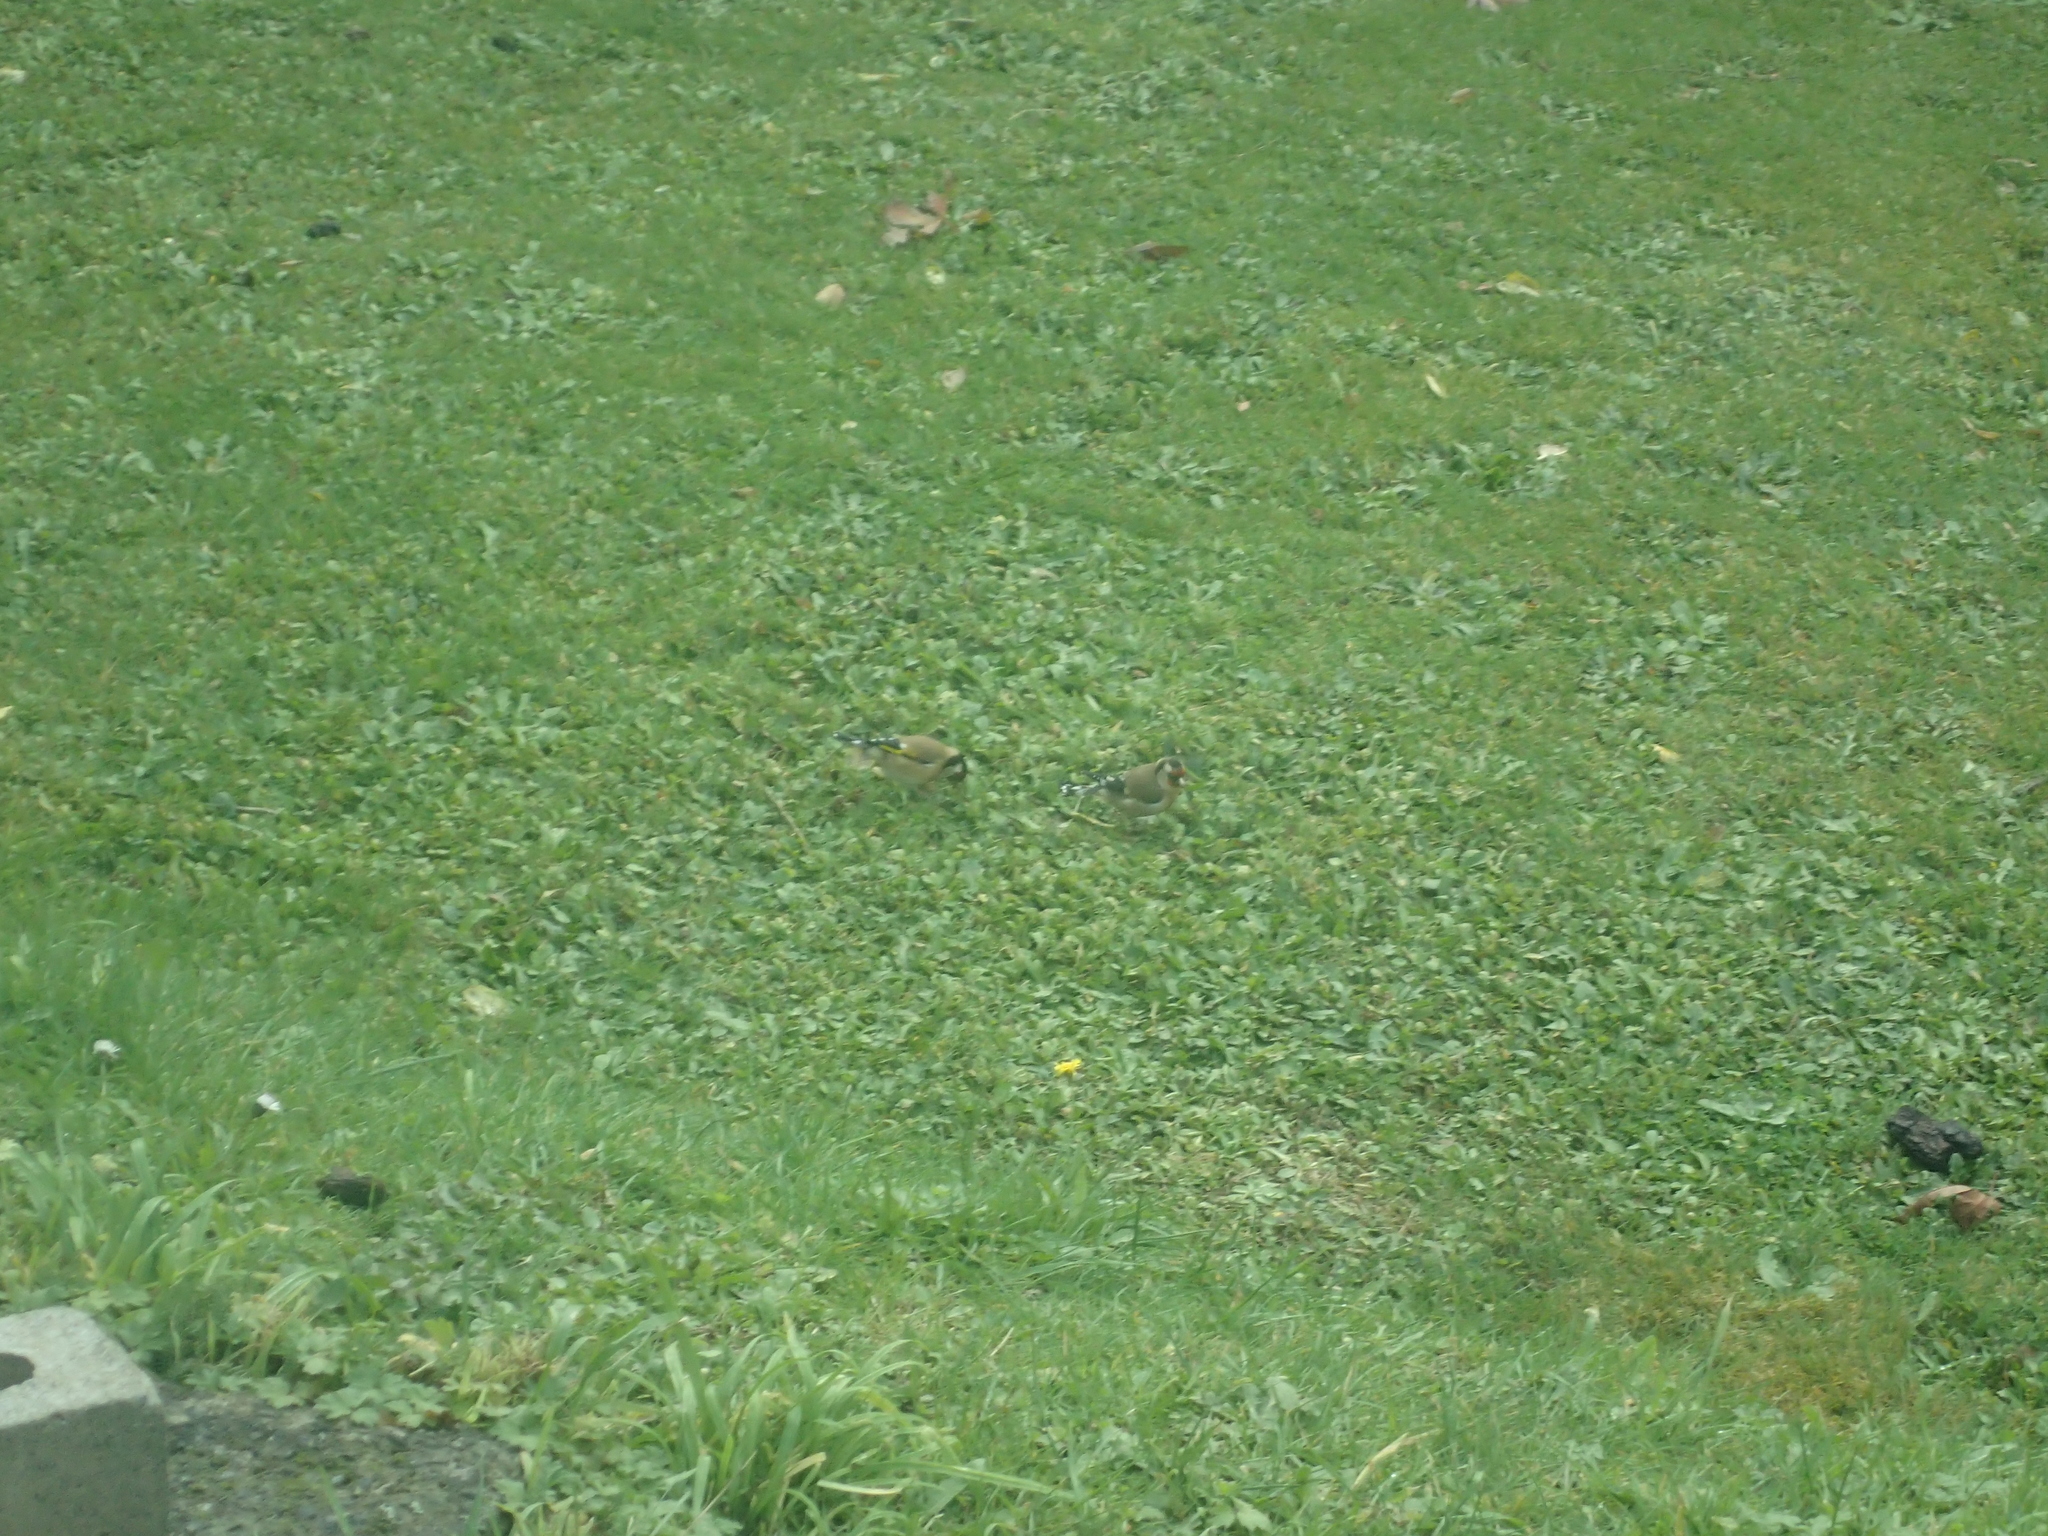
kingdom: Animalia
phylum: Chordata
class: Aves
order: Passeriformes
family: Fringillidae
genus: Carduelis
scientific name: Carduelis carduelis
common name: European goldfinch
